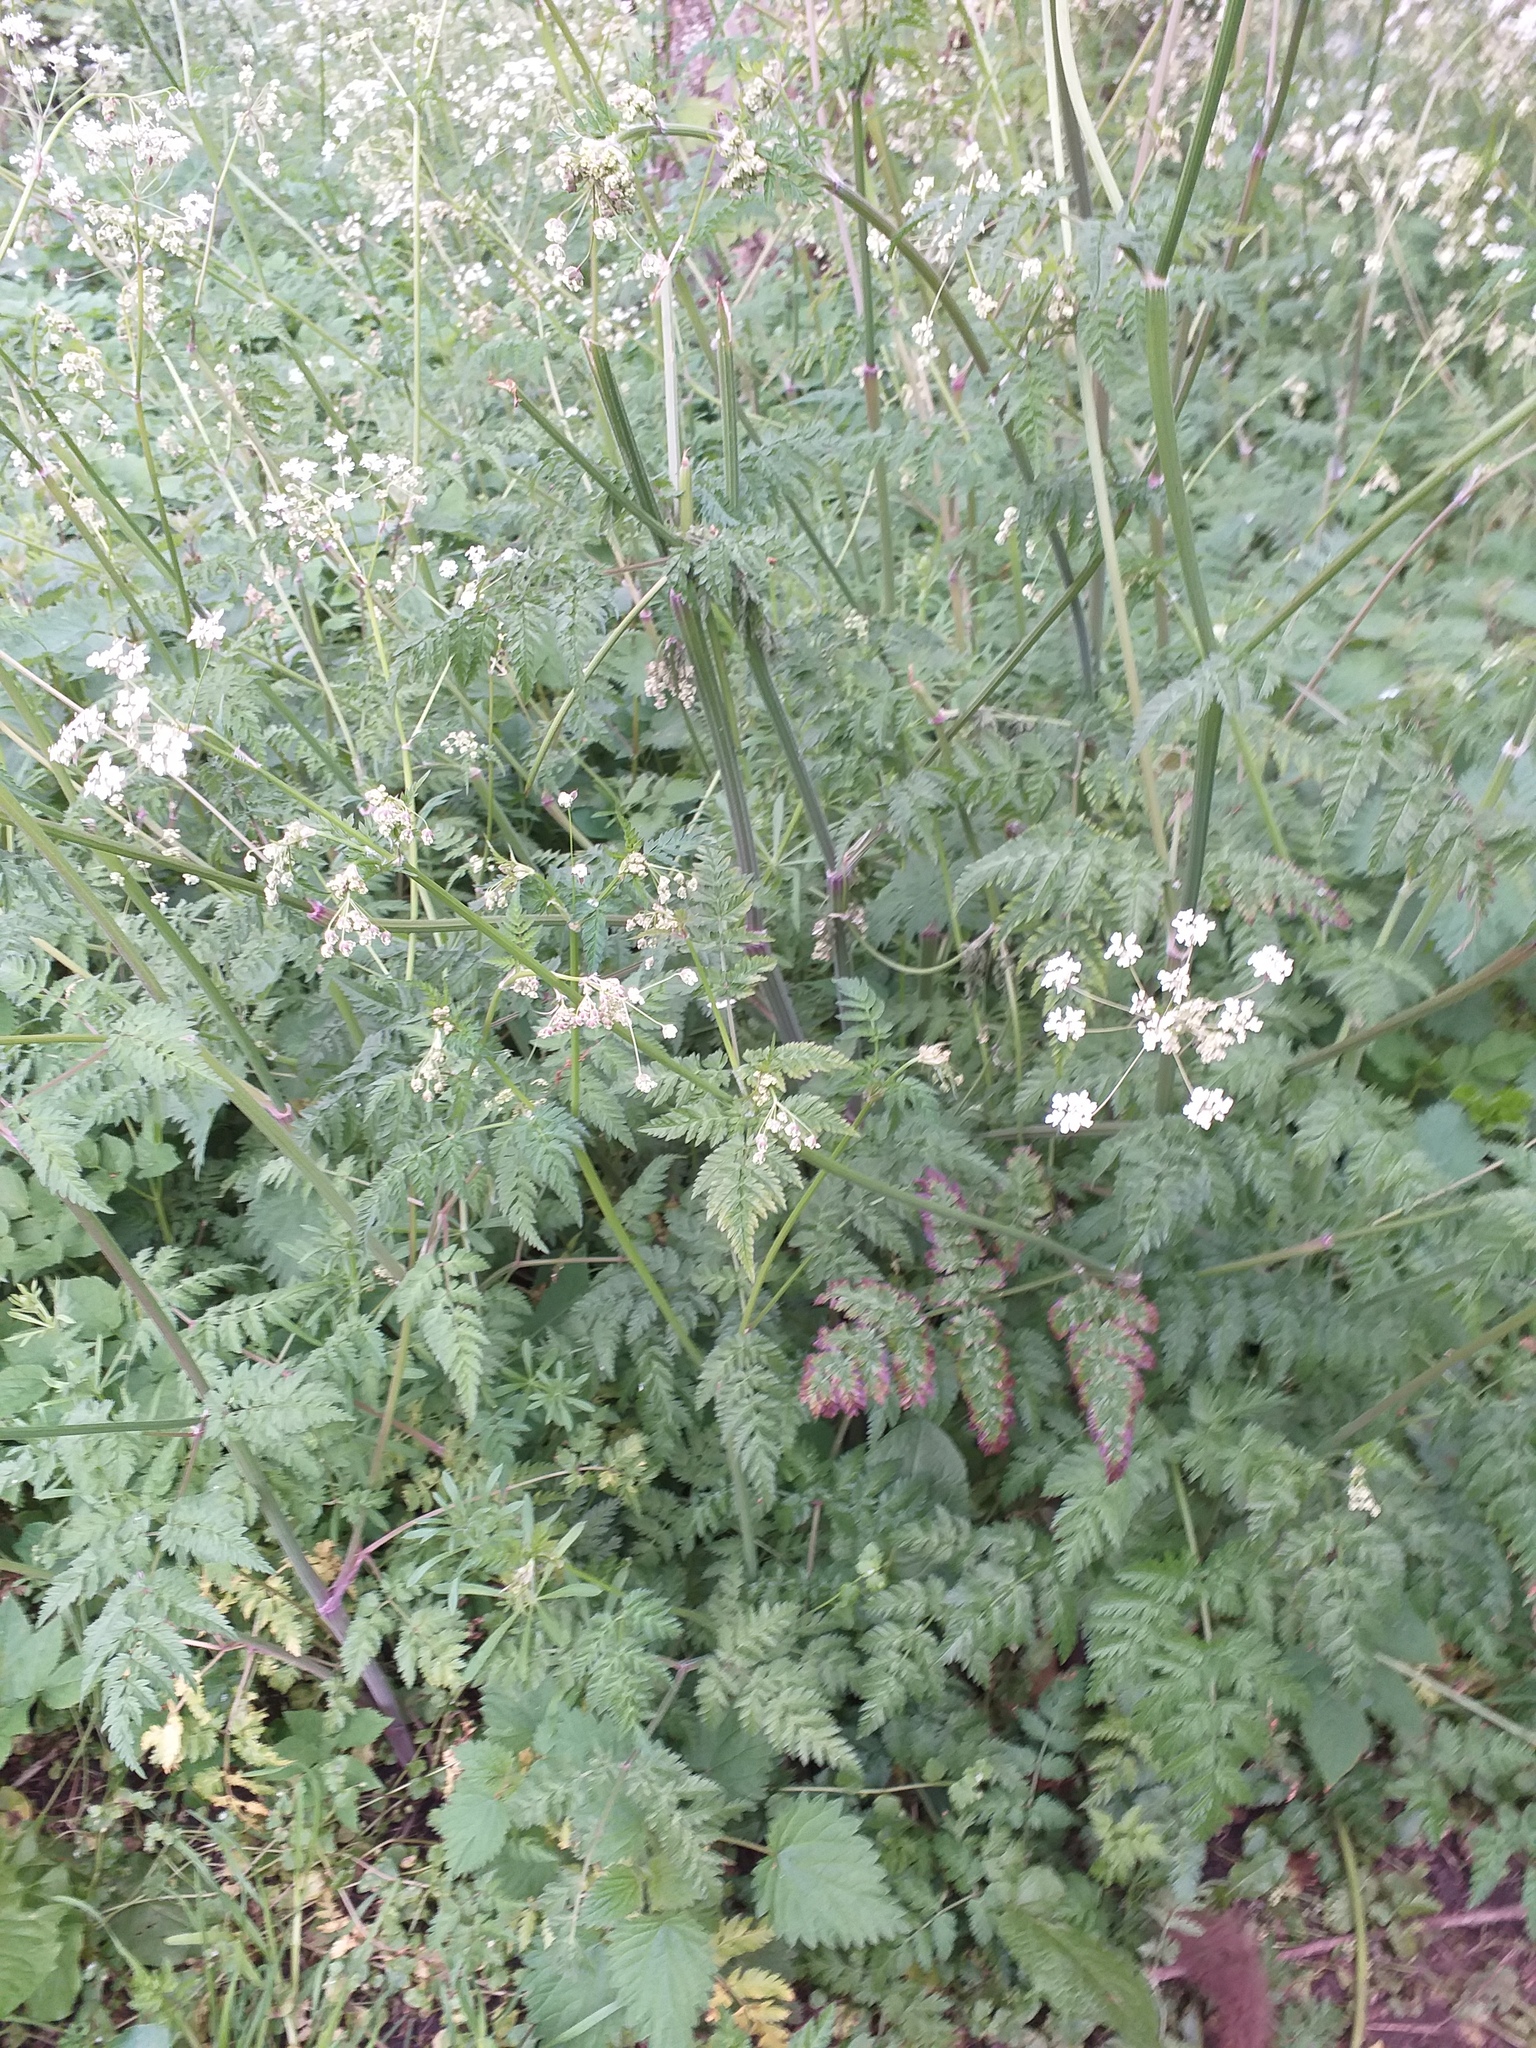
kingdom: Plantae
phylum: Tracheophyta
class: Magnoliopsida
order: Apiales
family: Apiaceae
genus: Anthriscus
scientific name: Anthriscus sylvestris
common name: Cow parsley
